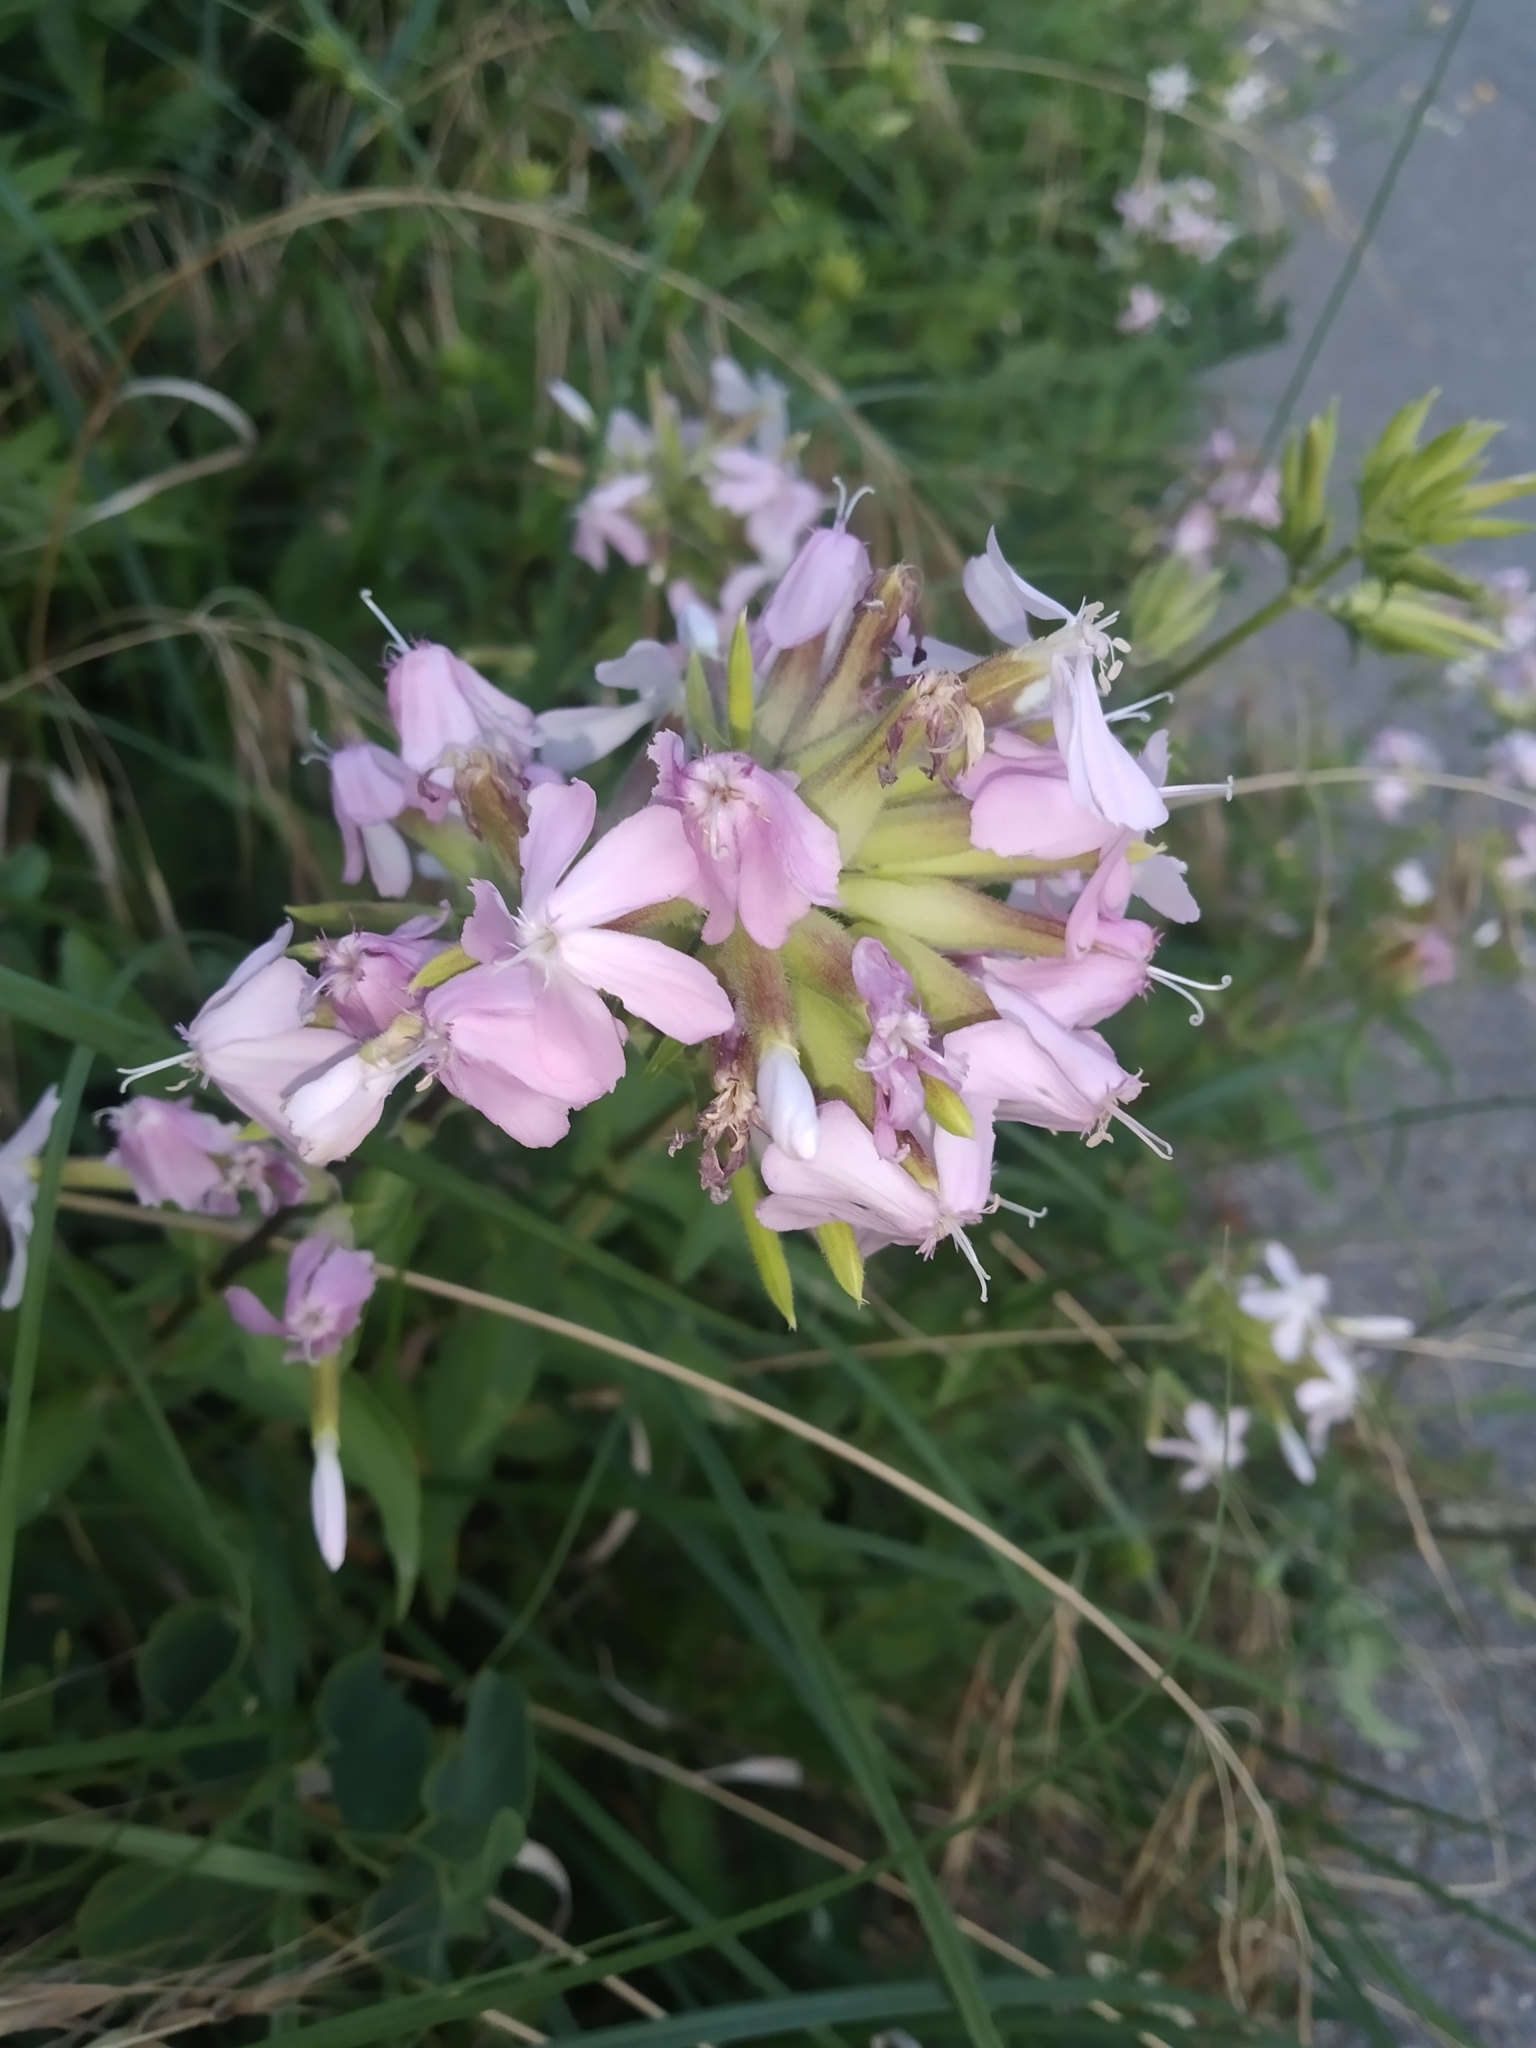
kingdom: Plantae
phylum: Tracheophyta
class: Magnoliopsida
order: Caryophyllales
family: Caryophyllaceae
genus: Saponaria
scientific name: Saponaria officinalis
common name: Soapwort
